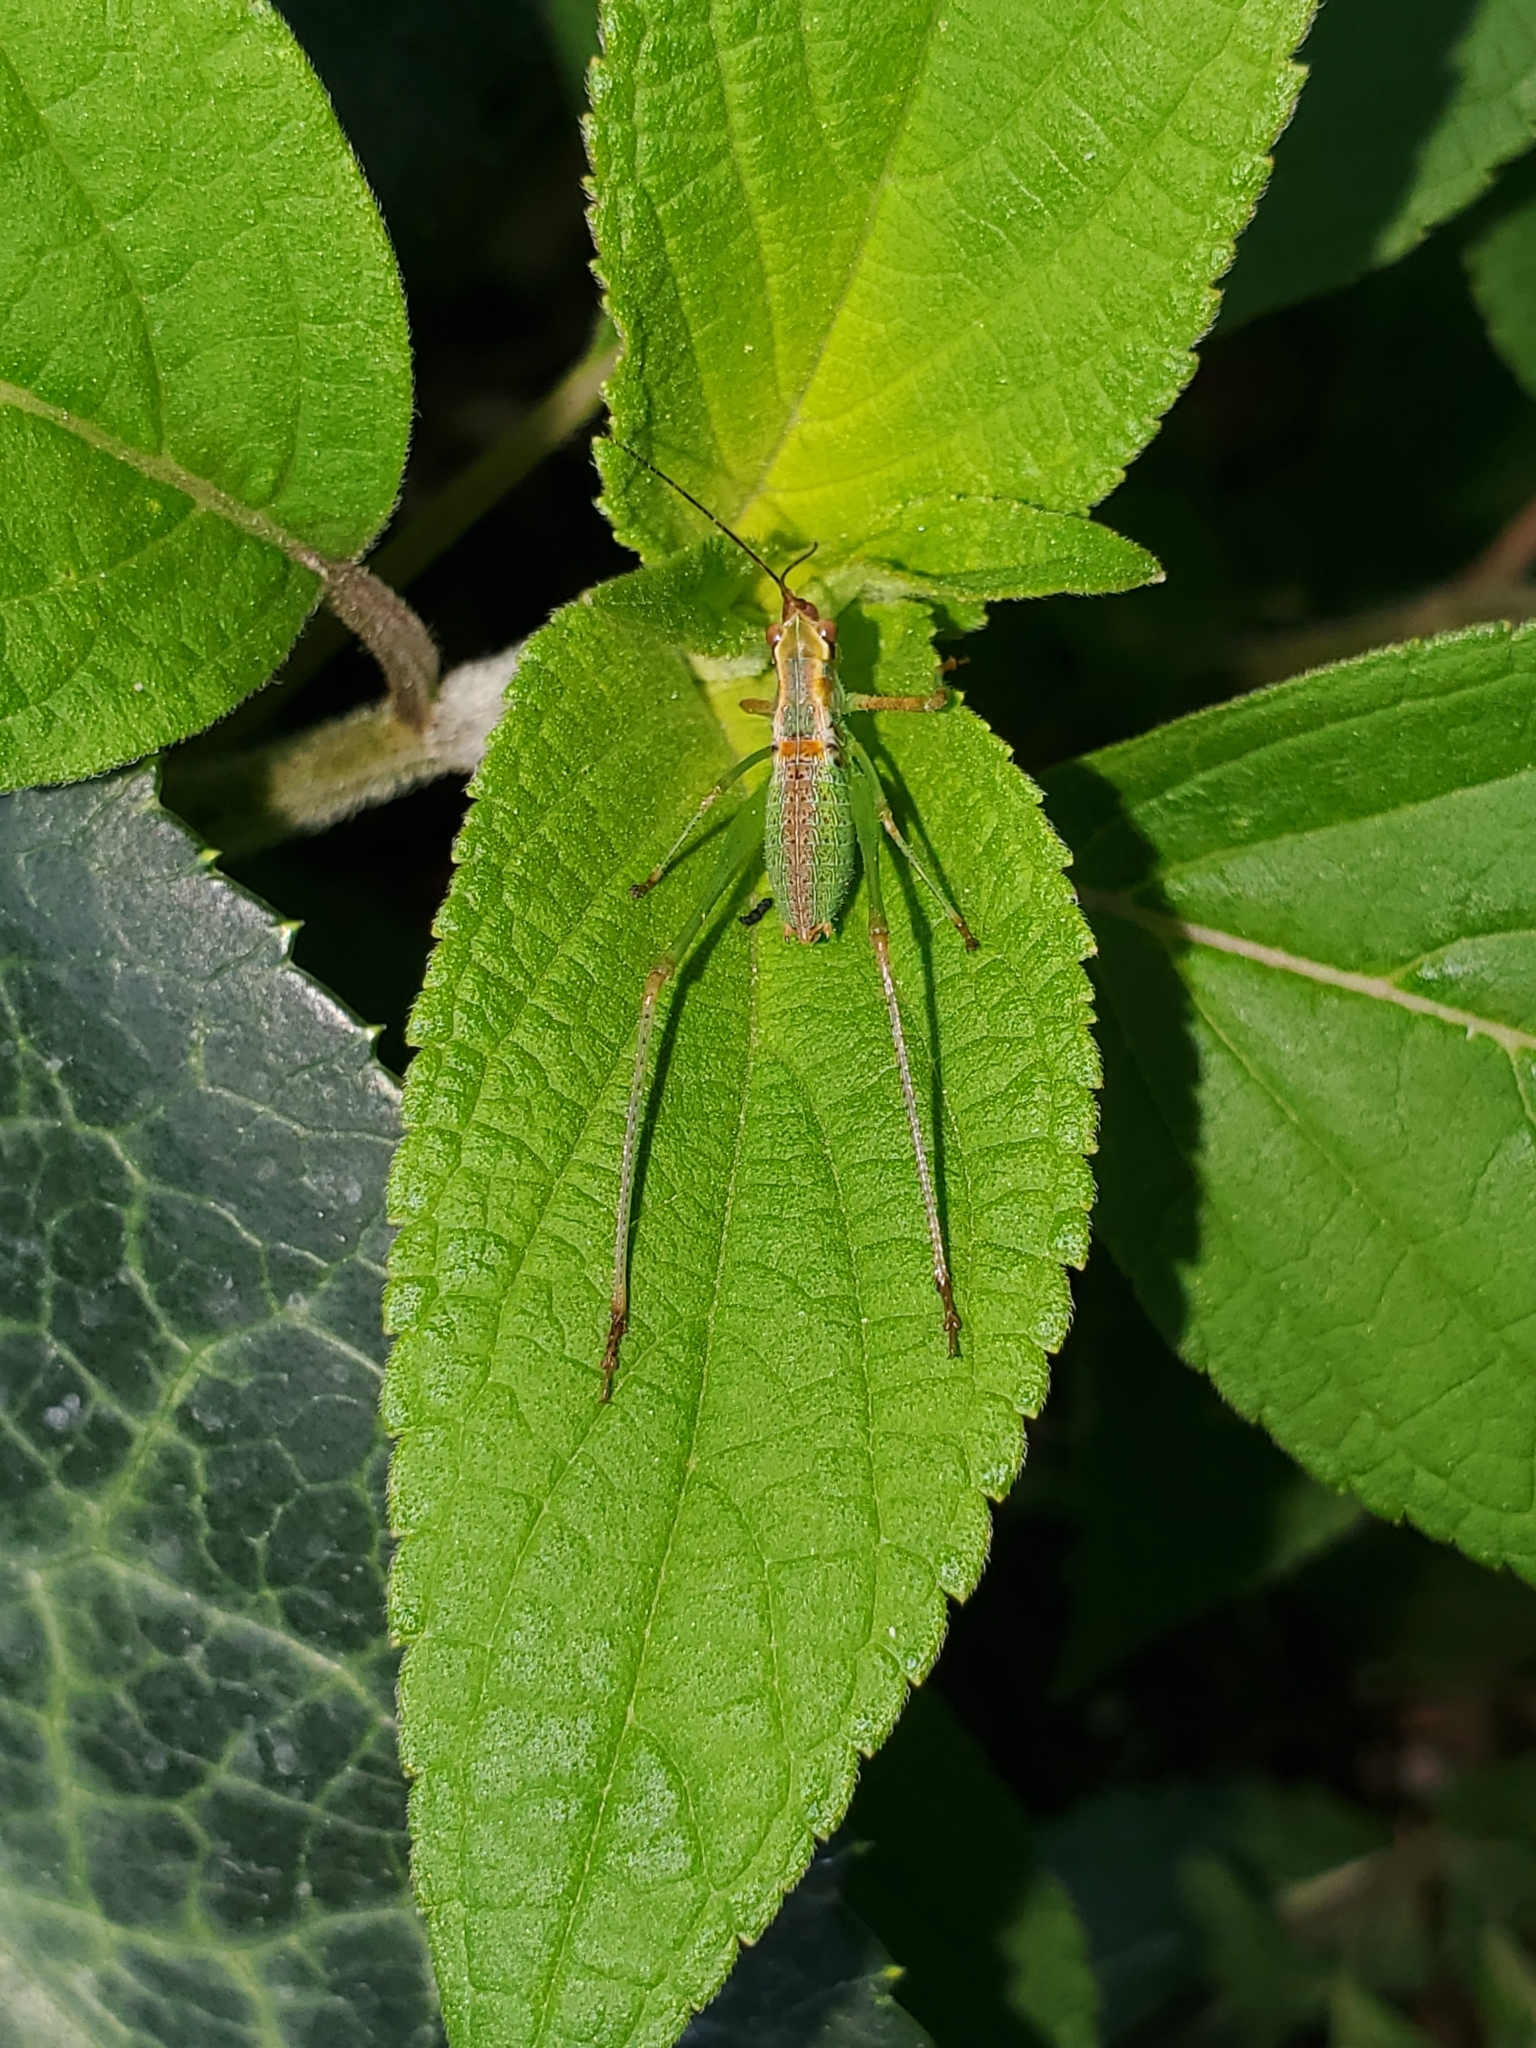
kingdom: Animalia
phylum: Arthropoda
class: Insecta
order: Orthoptera
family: Tettigoniidae
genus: Scudderia
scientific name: Scudderia furcata
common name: Fork-tailed bush katydid
